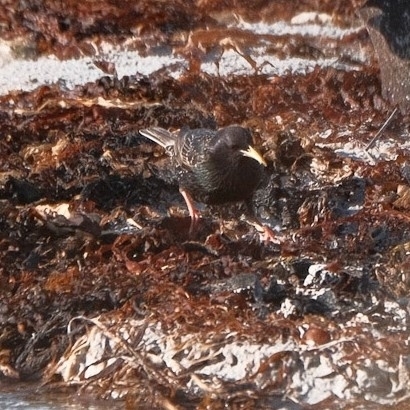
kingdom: Animalia
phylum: Chordata
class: Aves
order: Passeriformes
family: Sturnidae
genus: Sturnus
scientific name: Sturnus vulgaris
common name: Common starling
